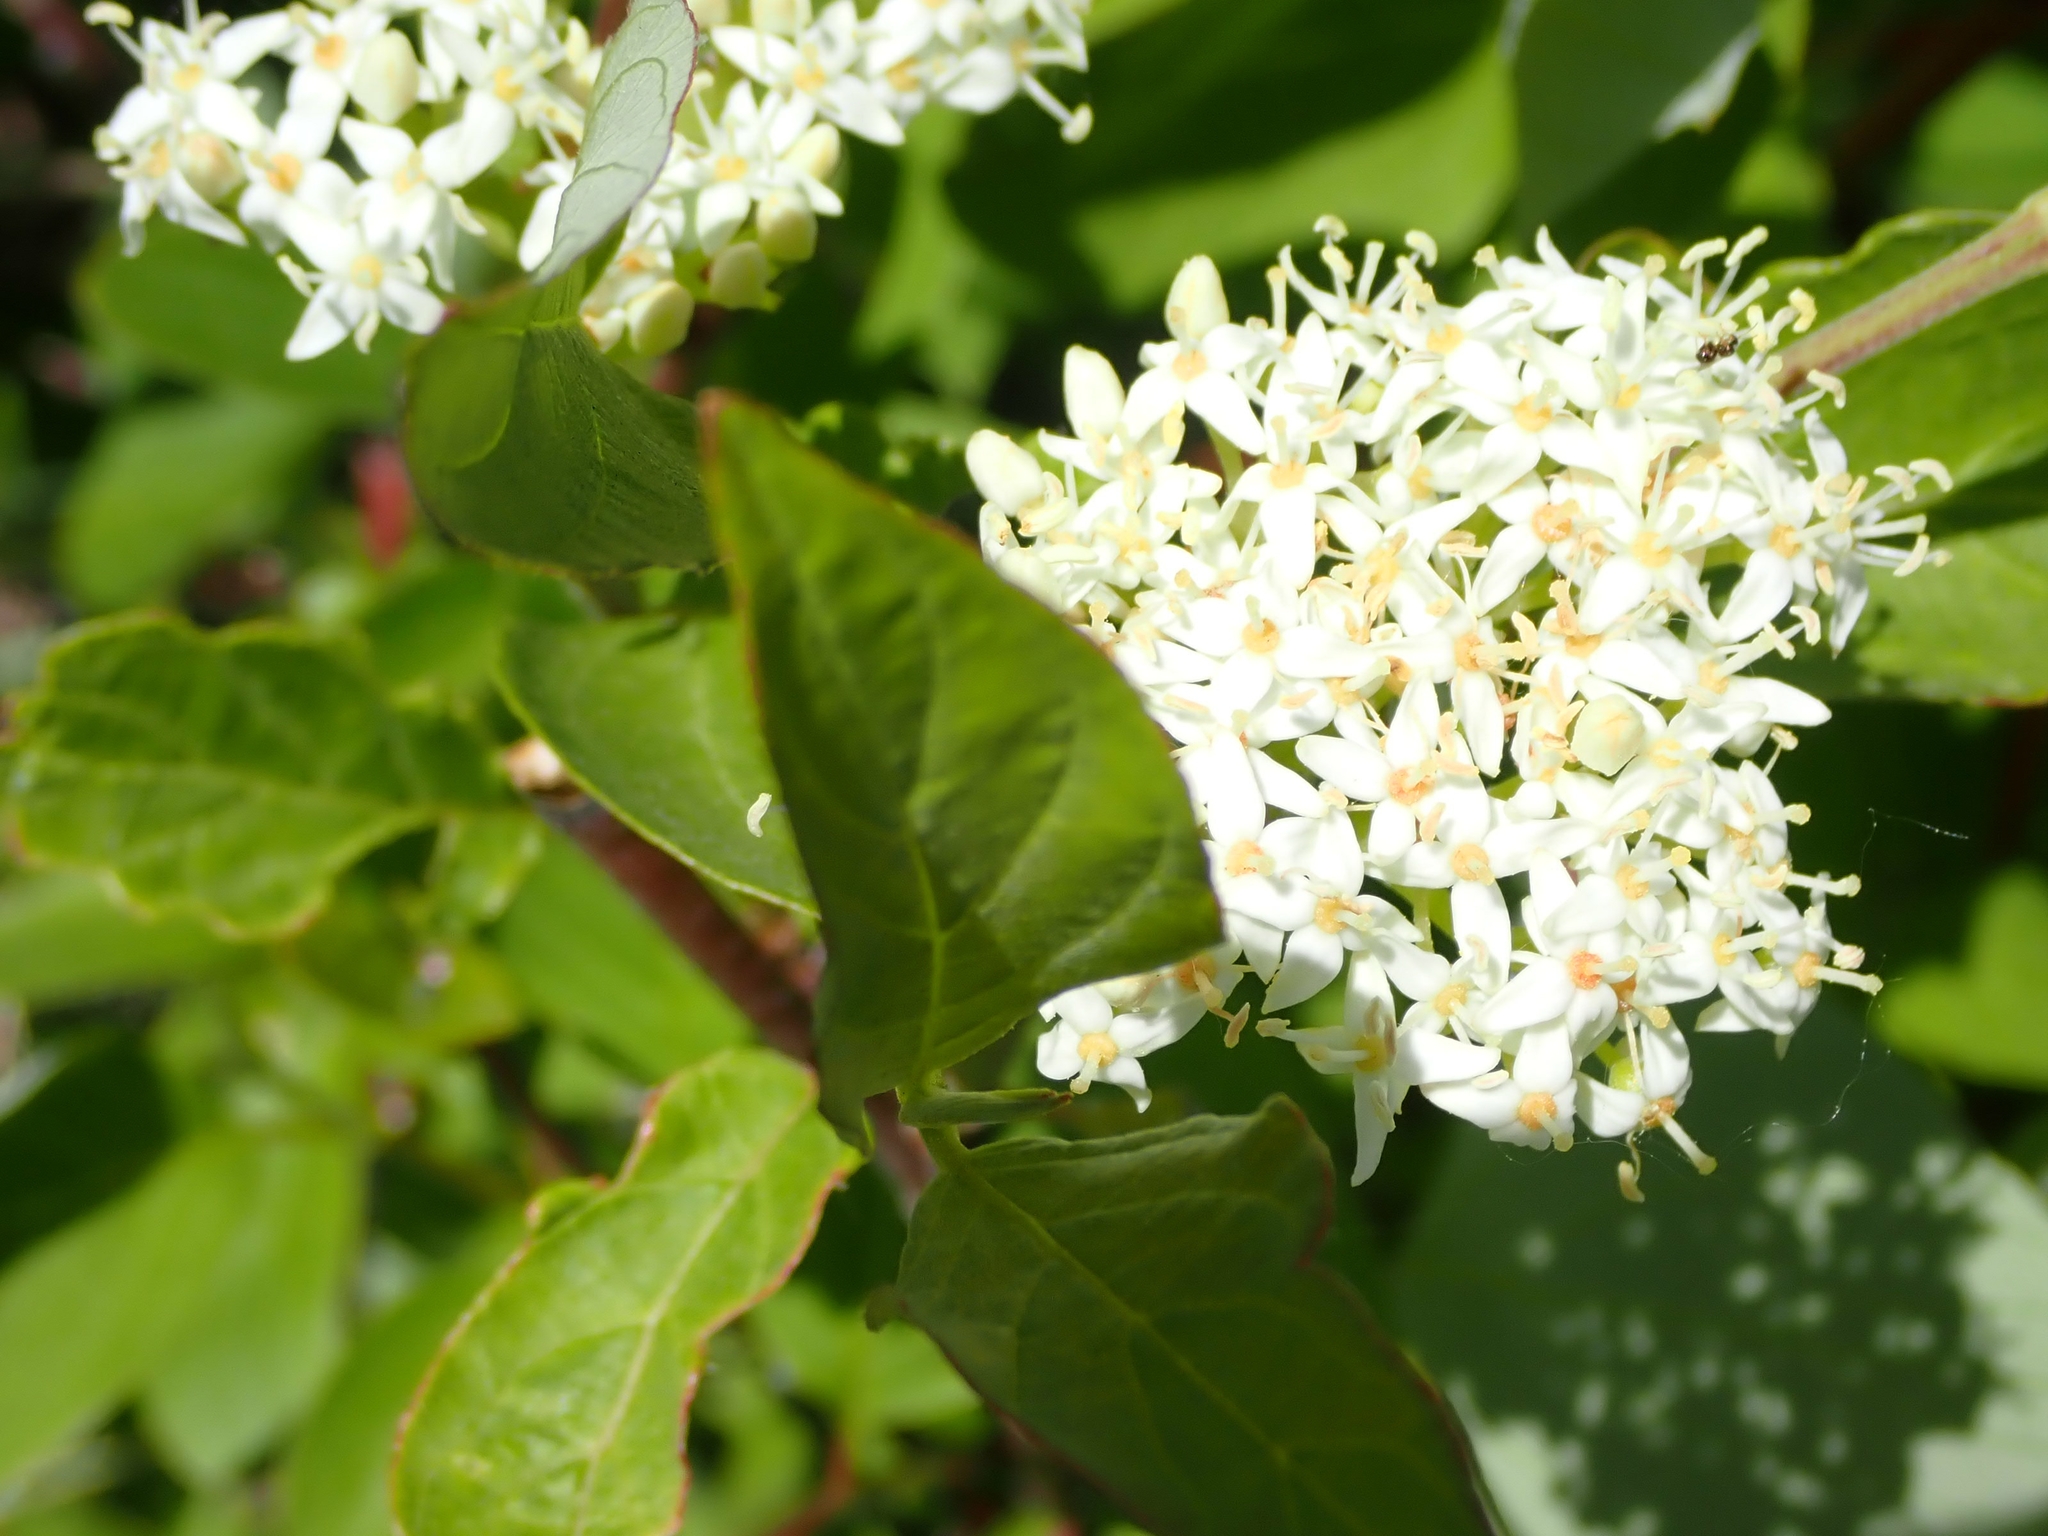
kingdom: Plantae
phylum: Tracheophyta
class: Magnoliopsida
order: Cornales
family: Cornaceae
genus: Cornus
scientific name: Cornus sericea
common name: Red-osier dogwood
